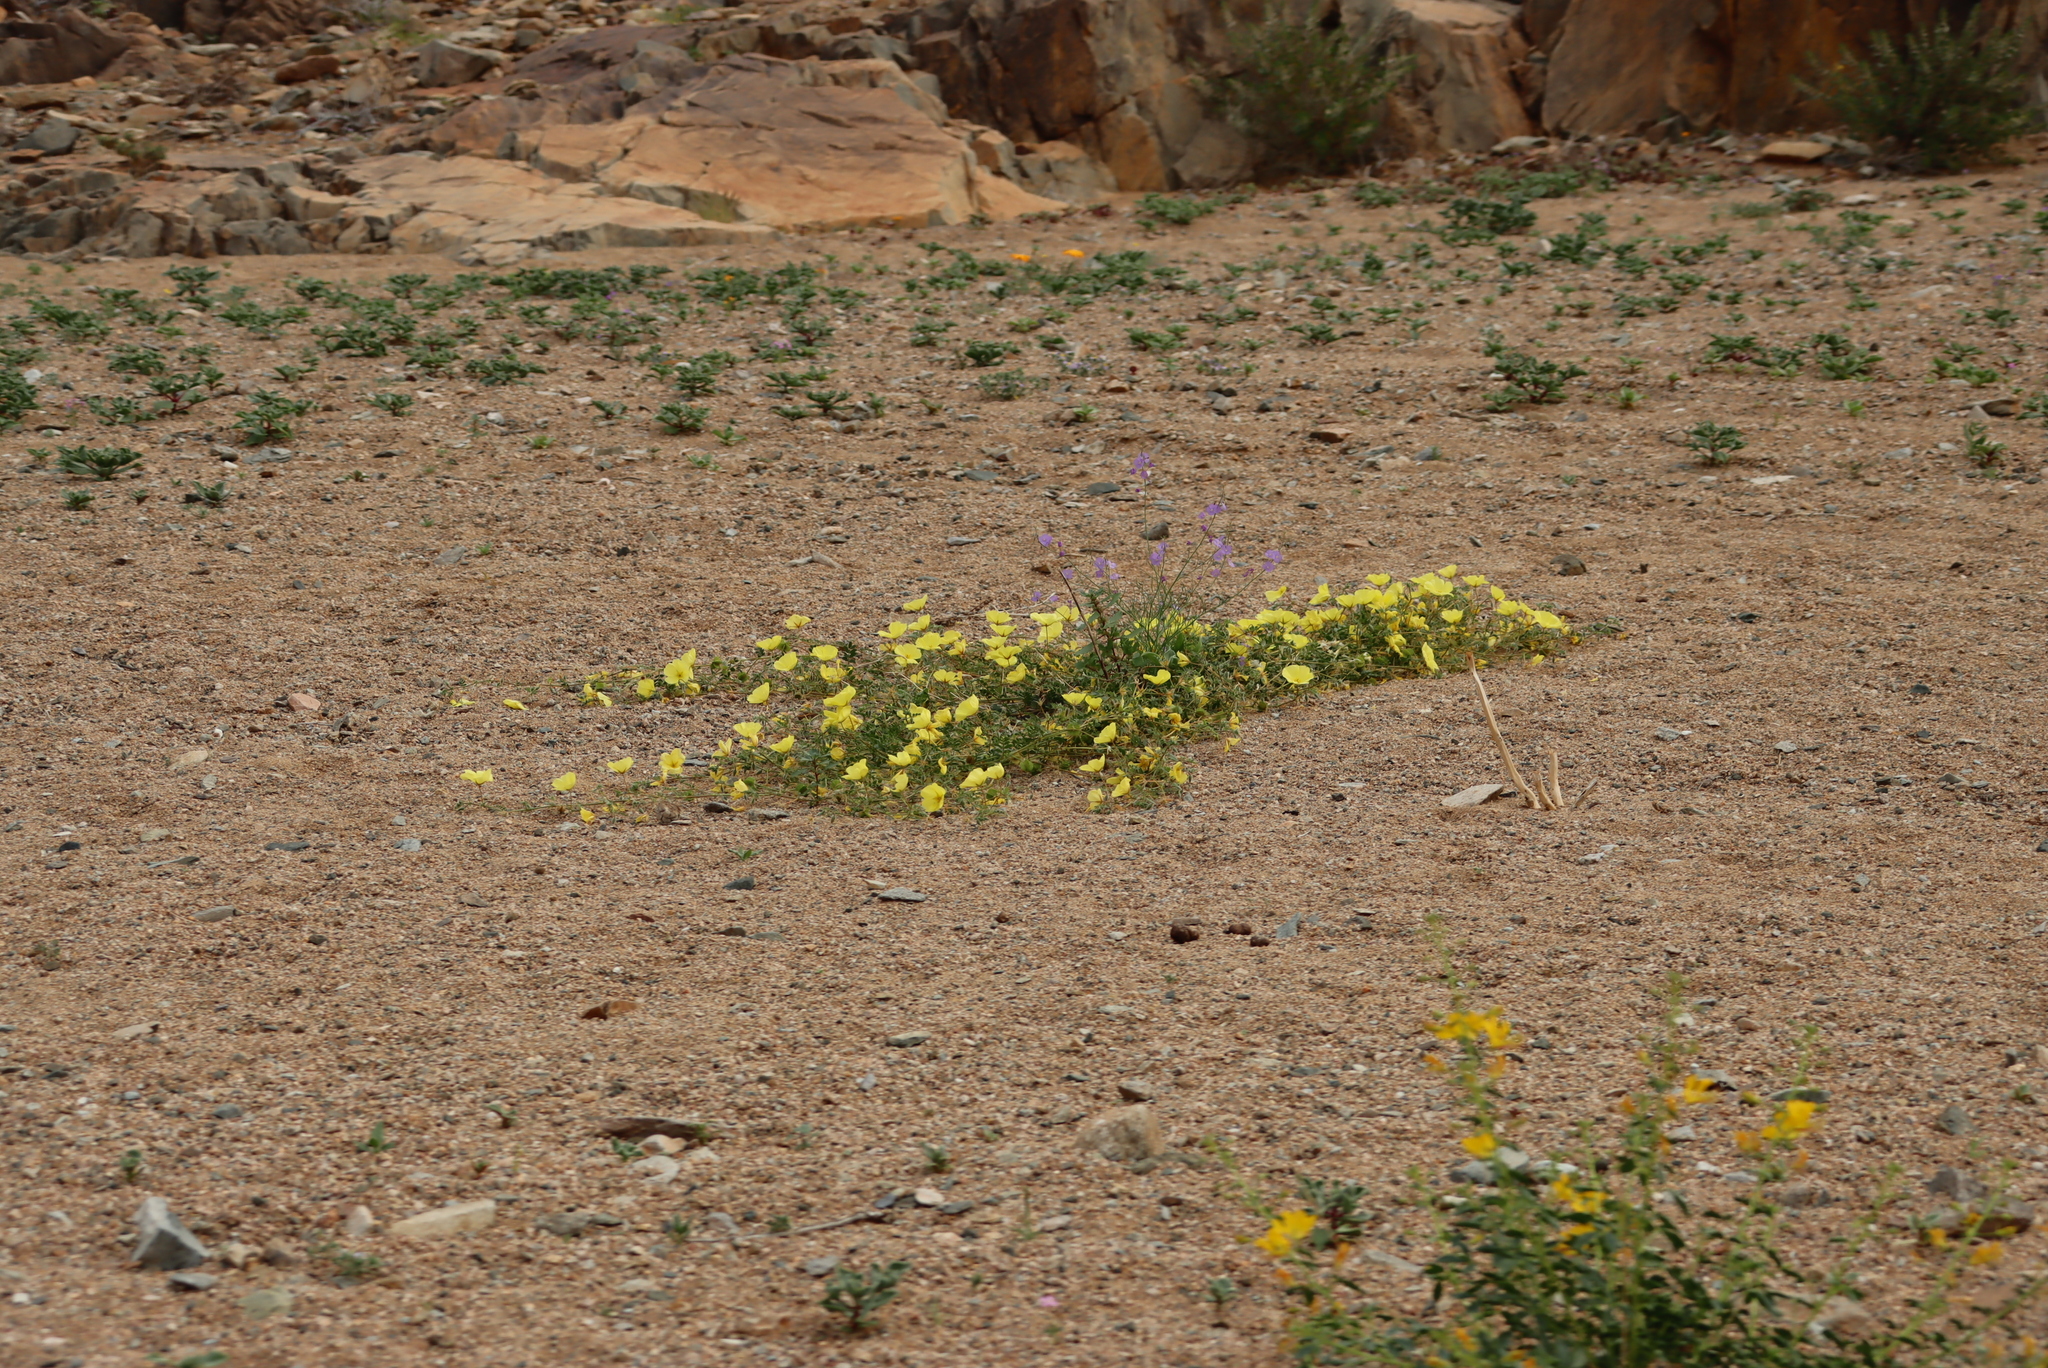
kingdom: Plantae
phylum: Tracheophyta
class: Magnoliopsida
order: Brassicales
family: Brassicaceae
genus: Heliophila
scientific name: Heliophila trifurca
